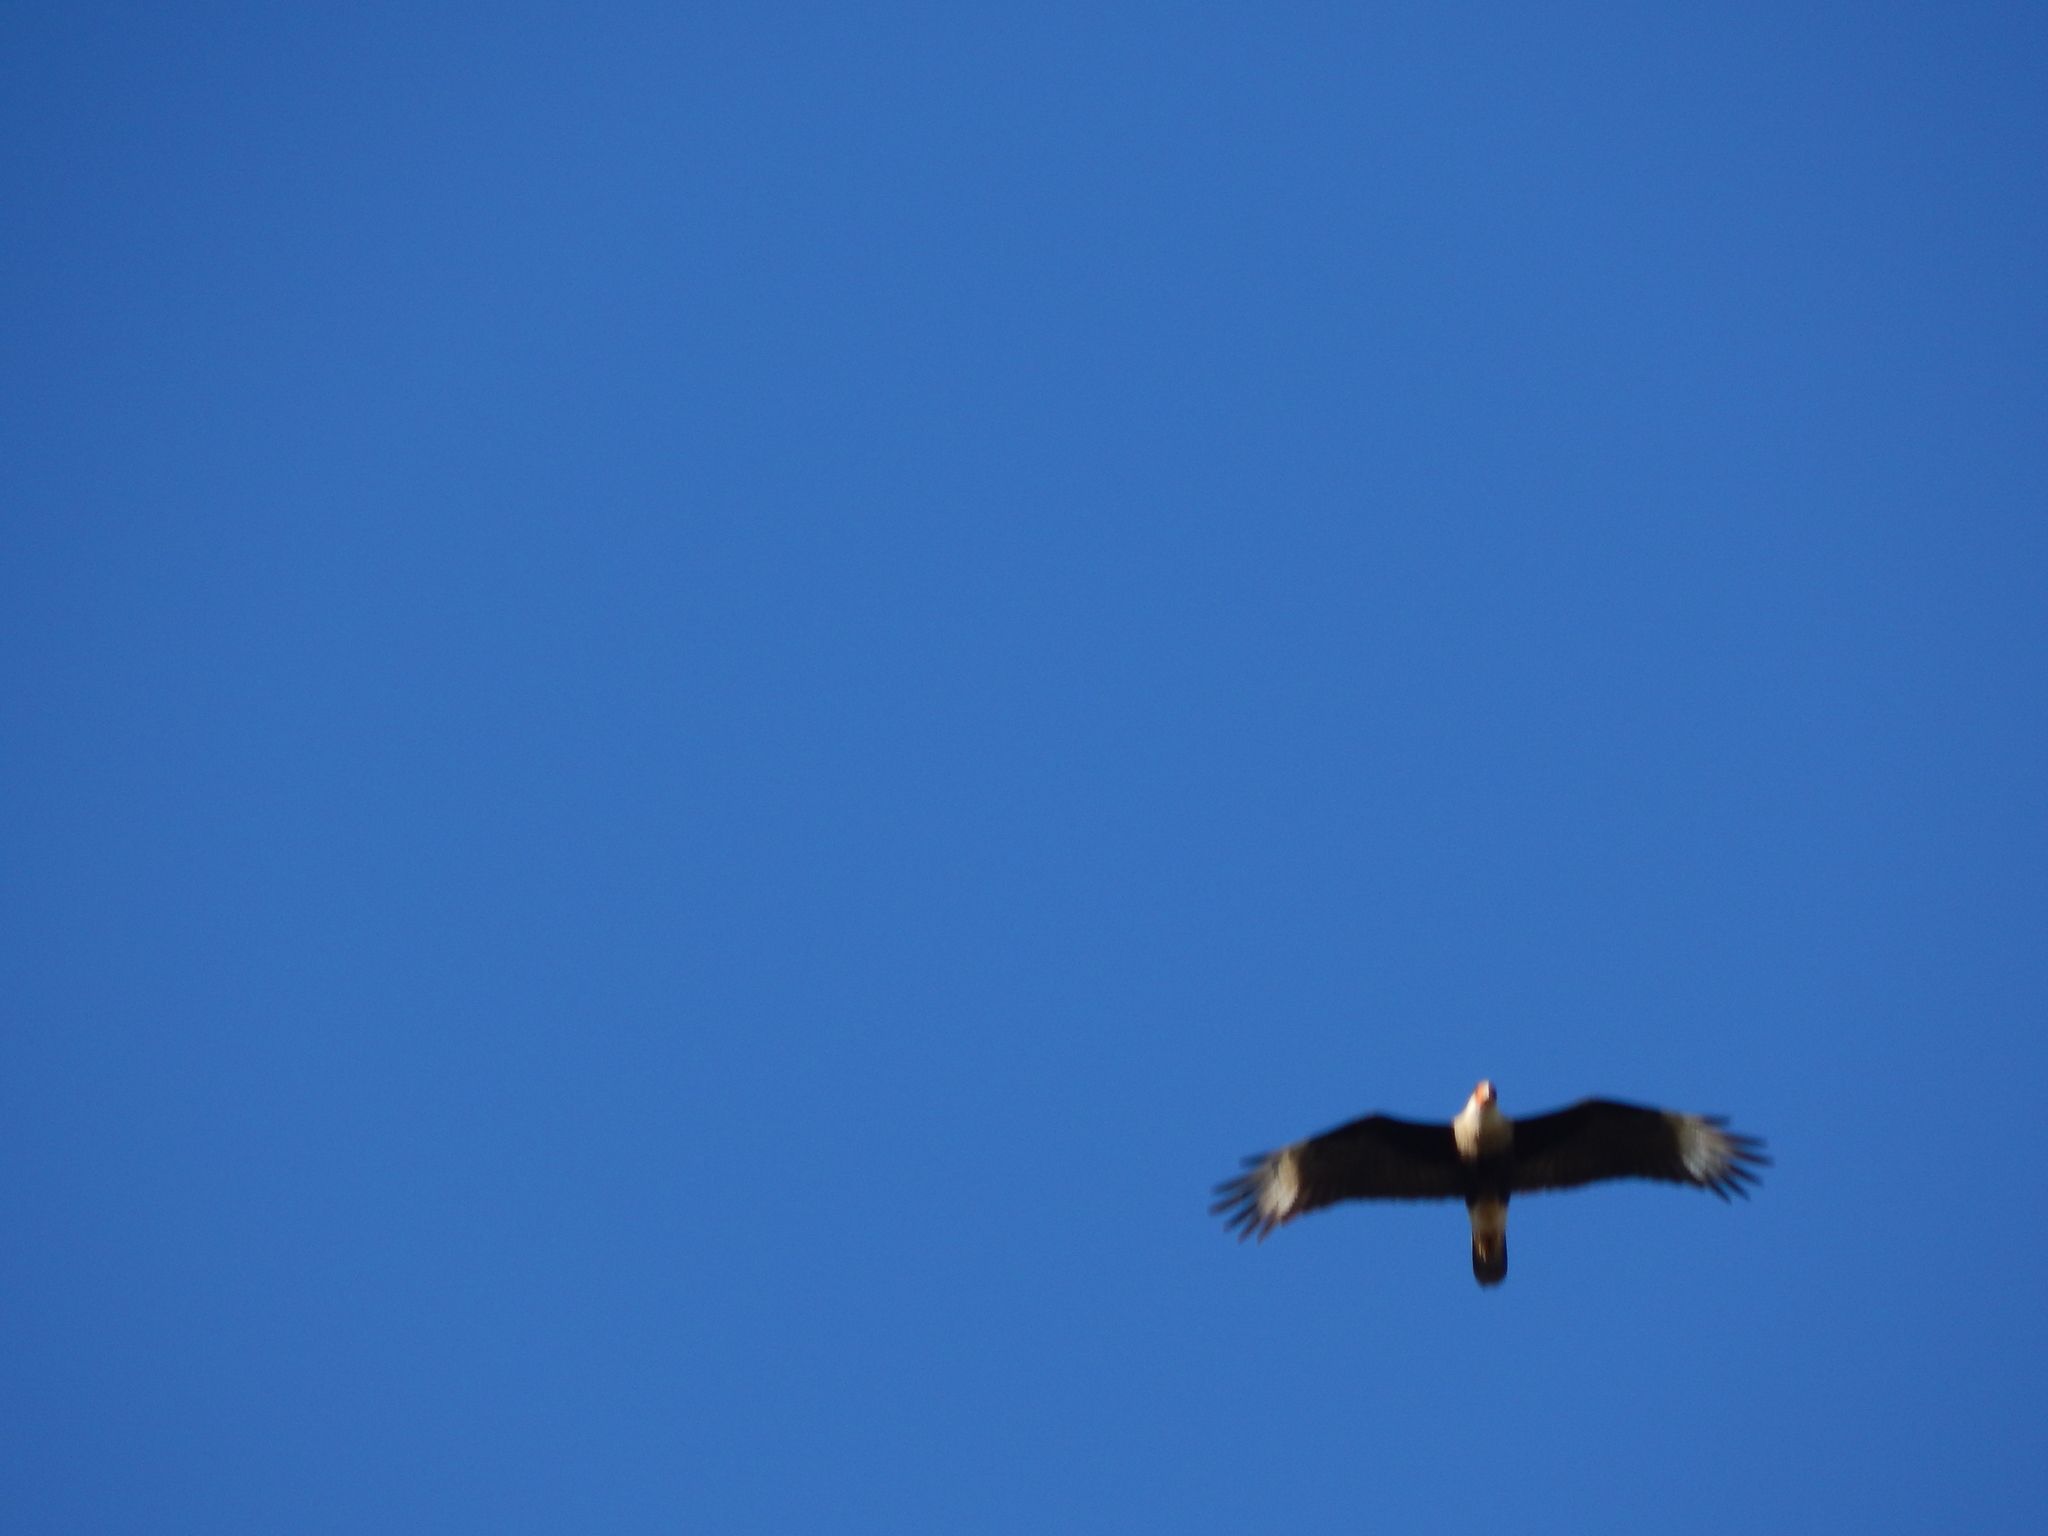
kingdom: Animalia
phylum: Chordata
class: Aves
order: Falconiformes
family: Falconidae
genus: Caracara
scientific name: Caracara plancus
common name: Southern caracara
